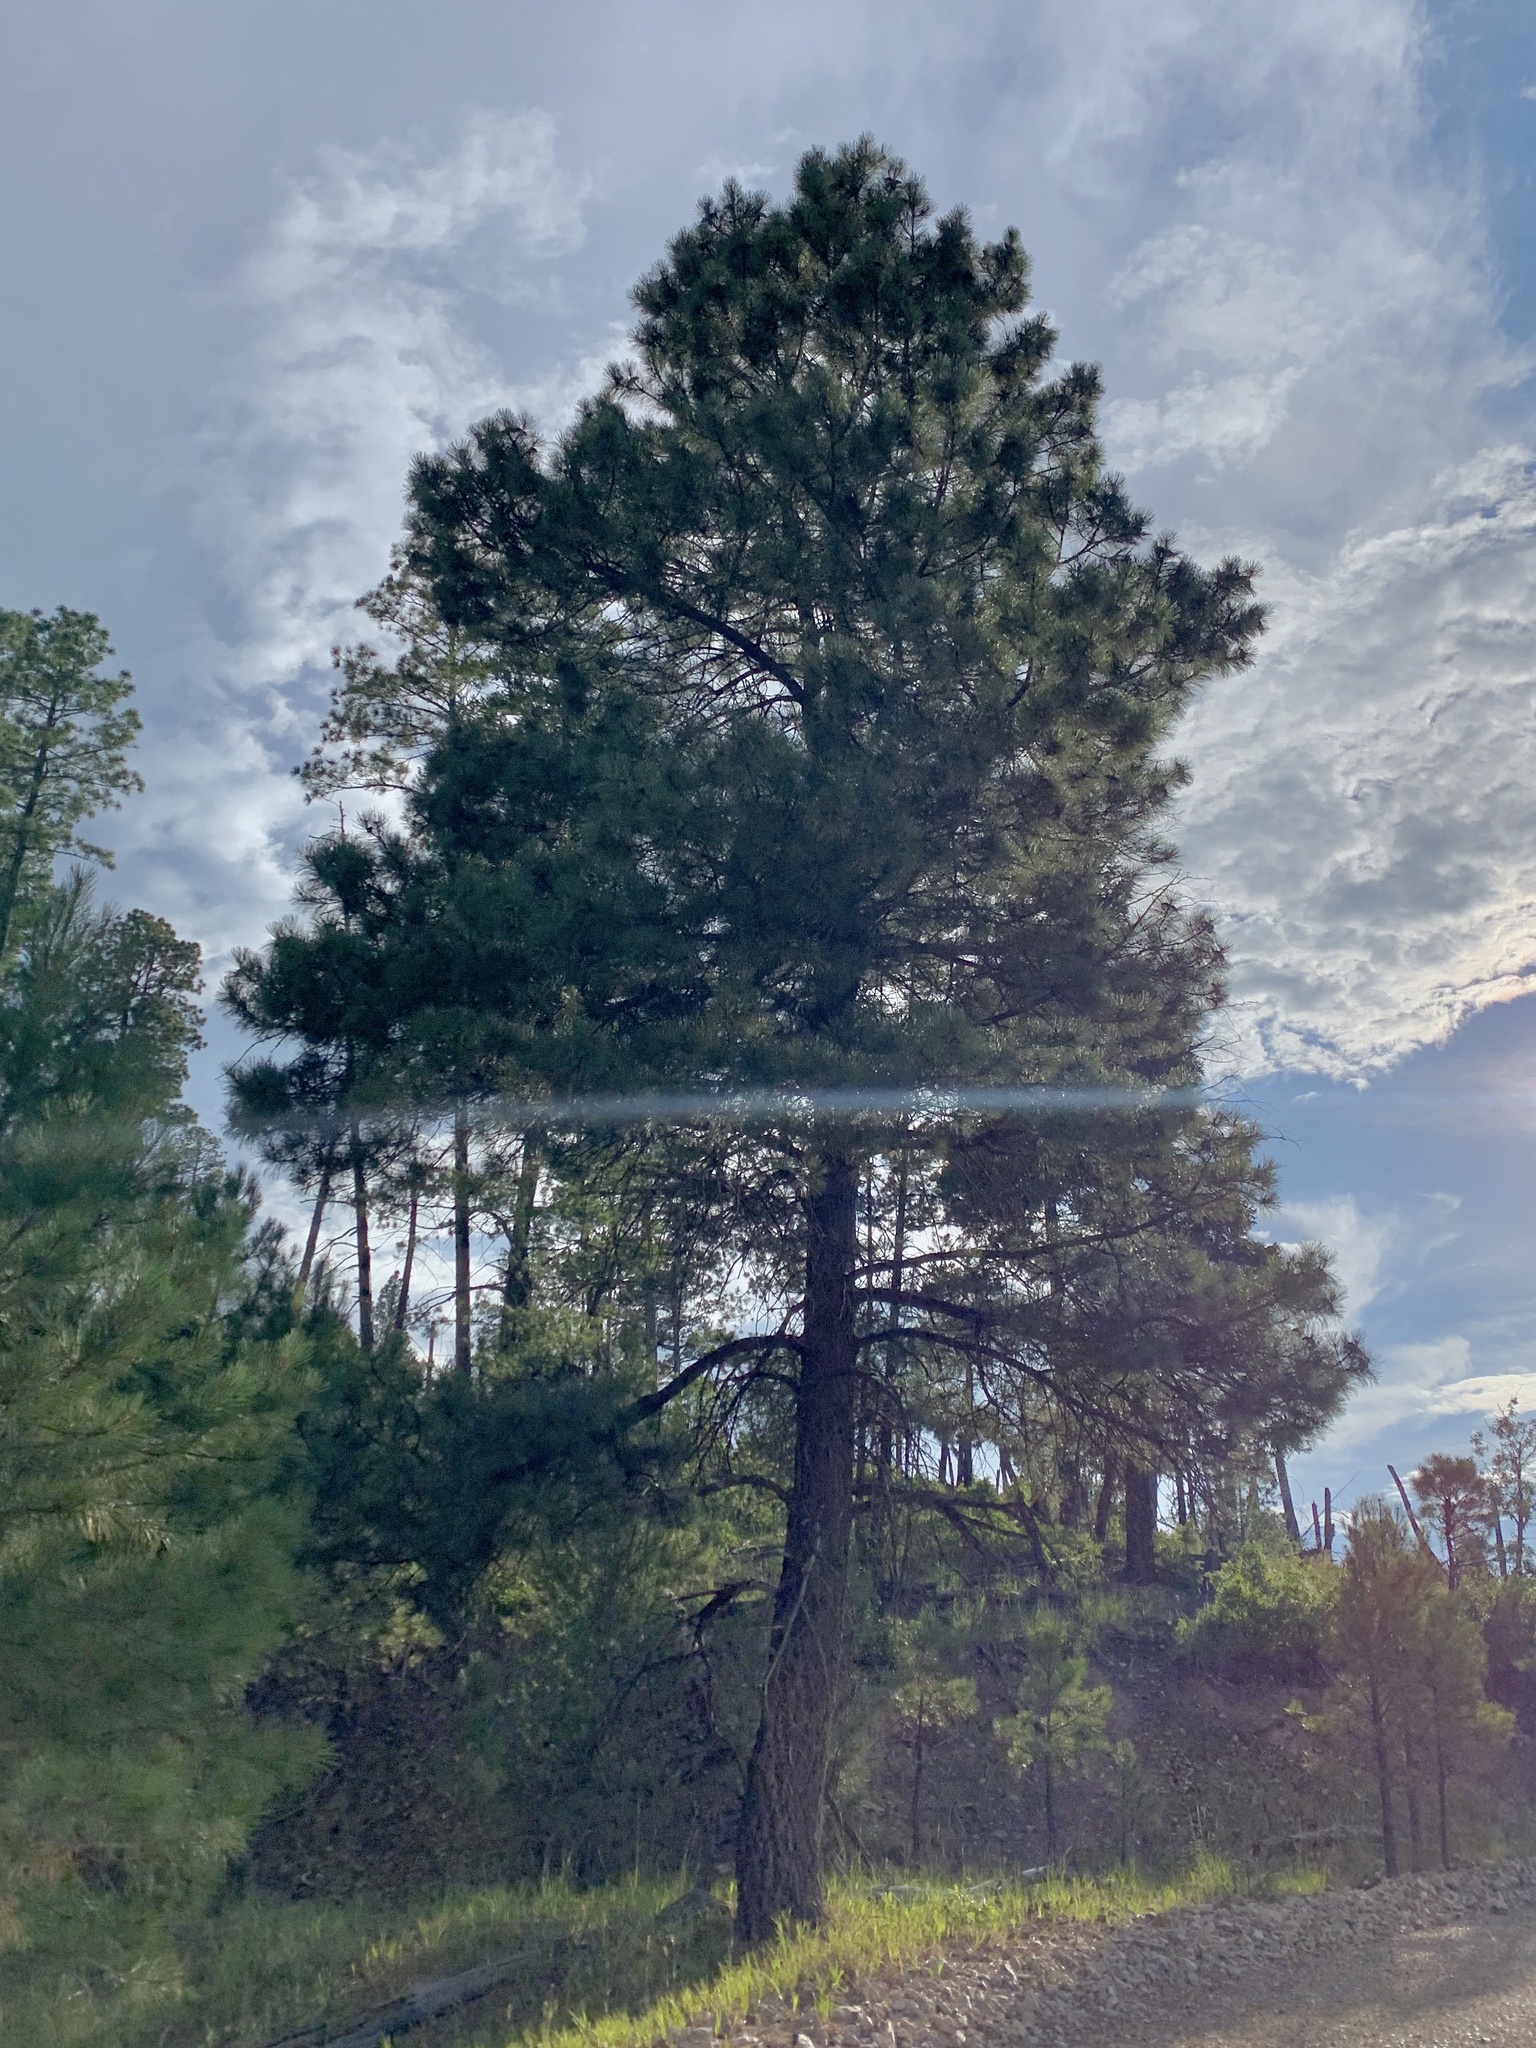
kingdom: Plantae
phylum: Tracheophyta
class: Pinopsida
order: Pinales
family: Pinaceae
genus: Pinus
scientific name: Pinus ponderosa
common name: Western yellow-pine
